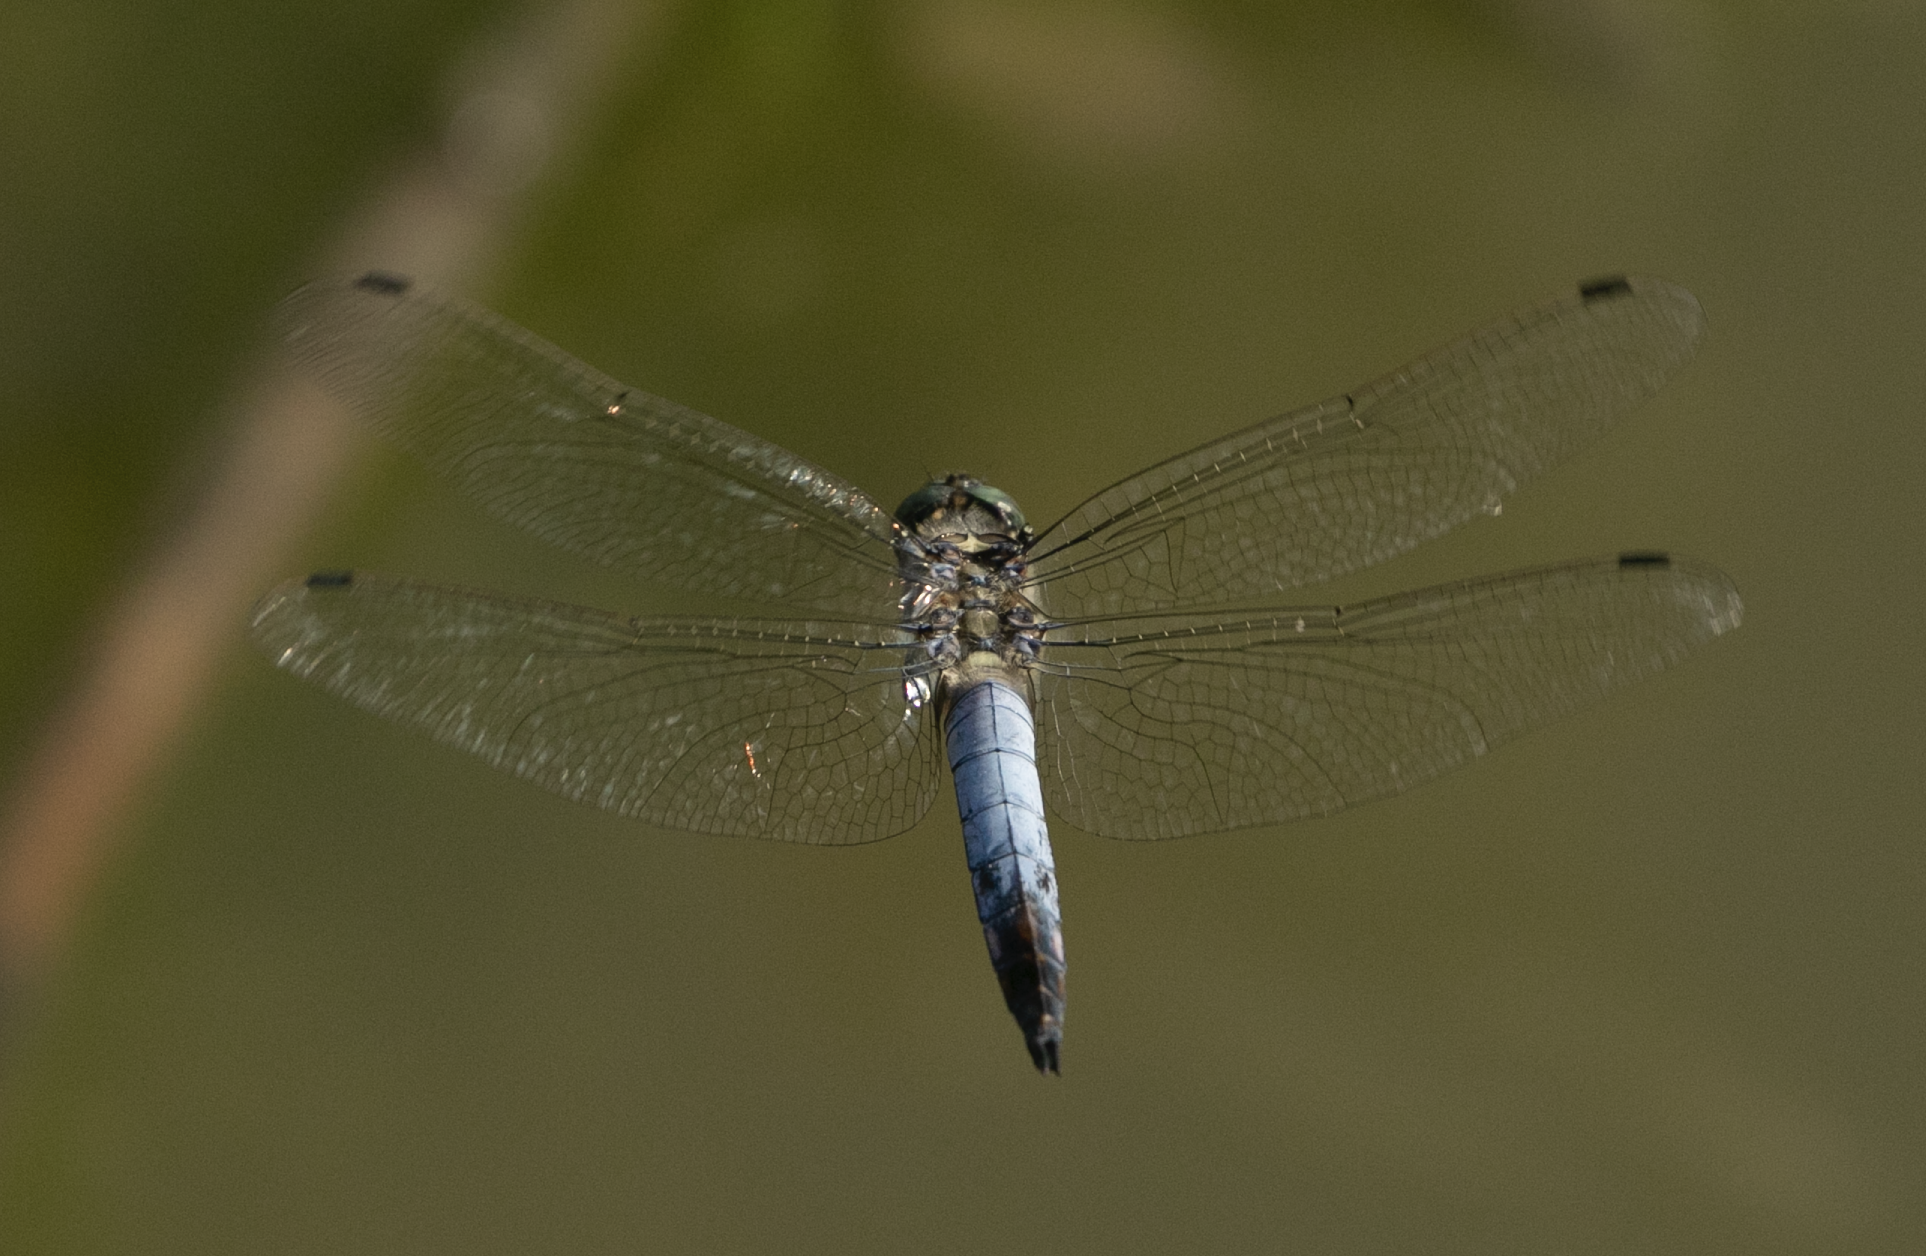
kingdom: Animalia
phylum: Arthropoda
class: Insecta
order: Odonata
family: Libellulidae
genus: Orthetrum
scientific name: Orthetrum cancellatum
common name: Black-tailed skimmer
